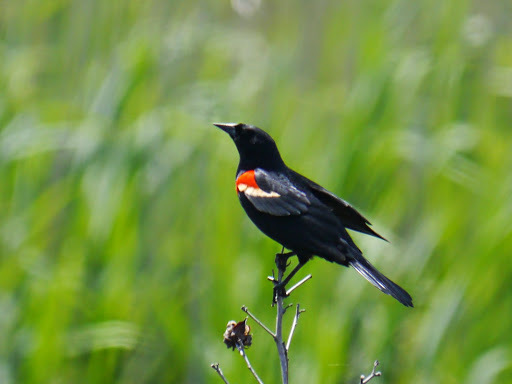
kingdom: Animalia
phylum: Chordata
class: Aves
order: Passeriformes
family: Icteridae
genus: Agelaius
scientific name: Agelaius phoeniceus
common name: Red-winged blackbird
